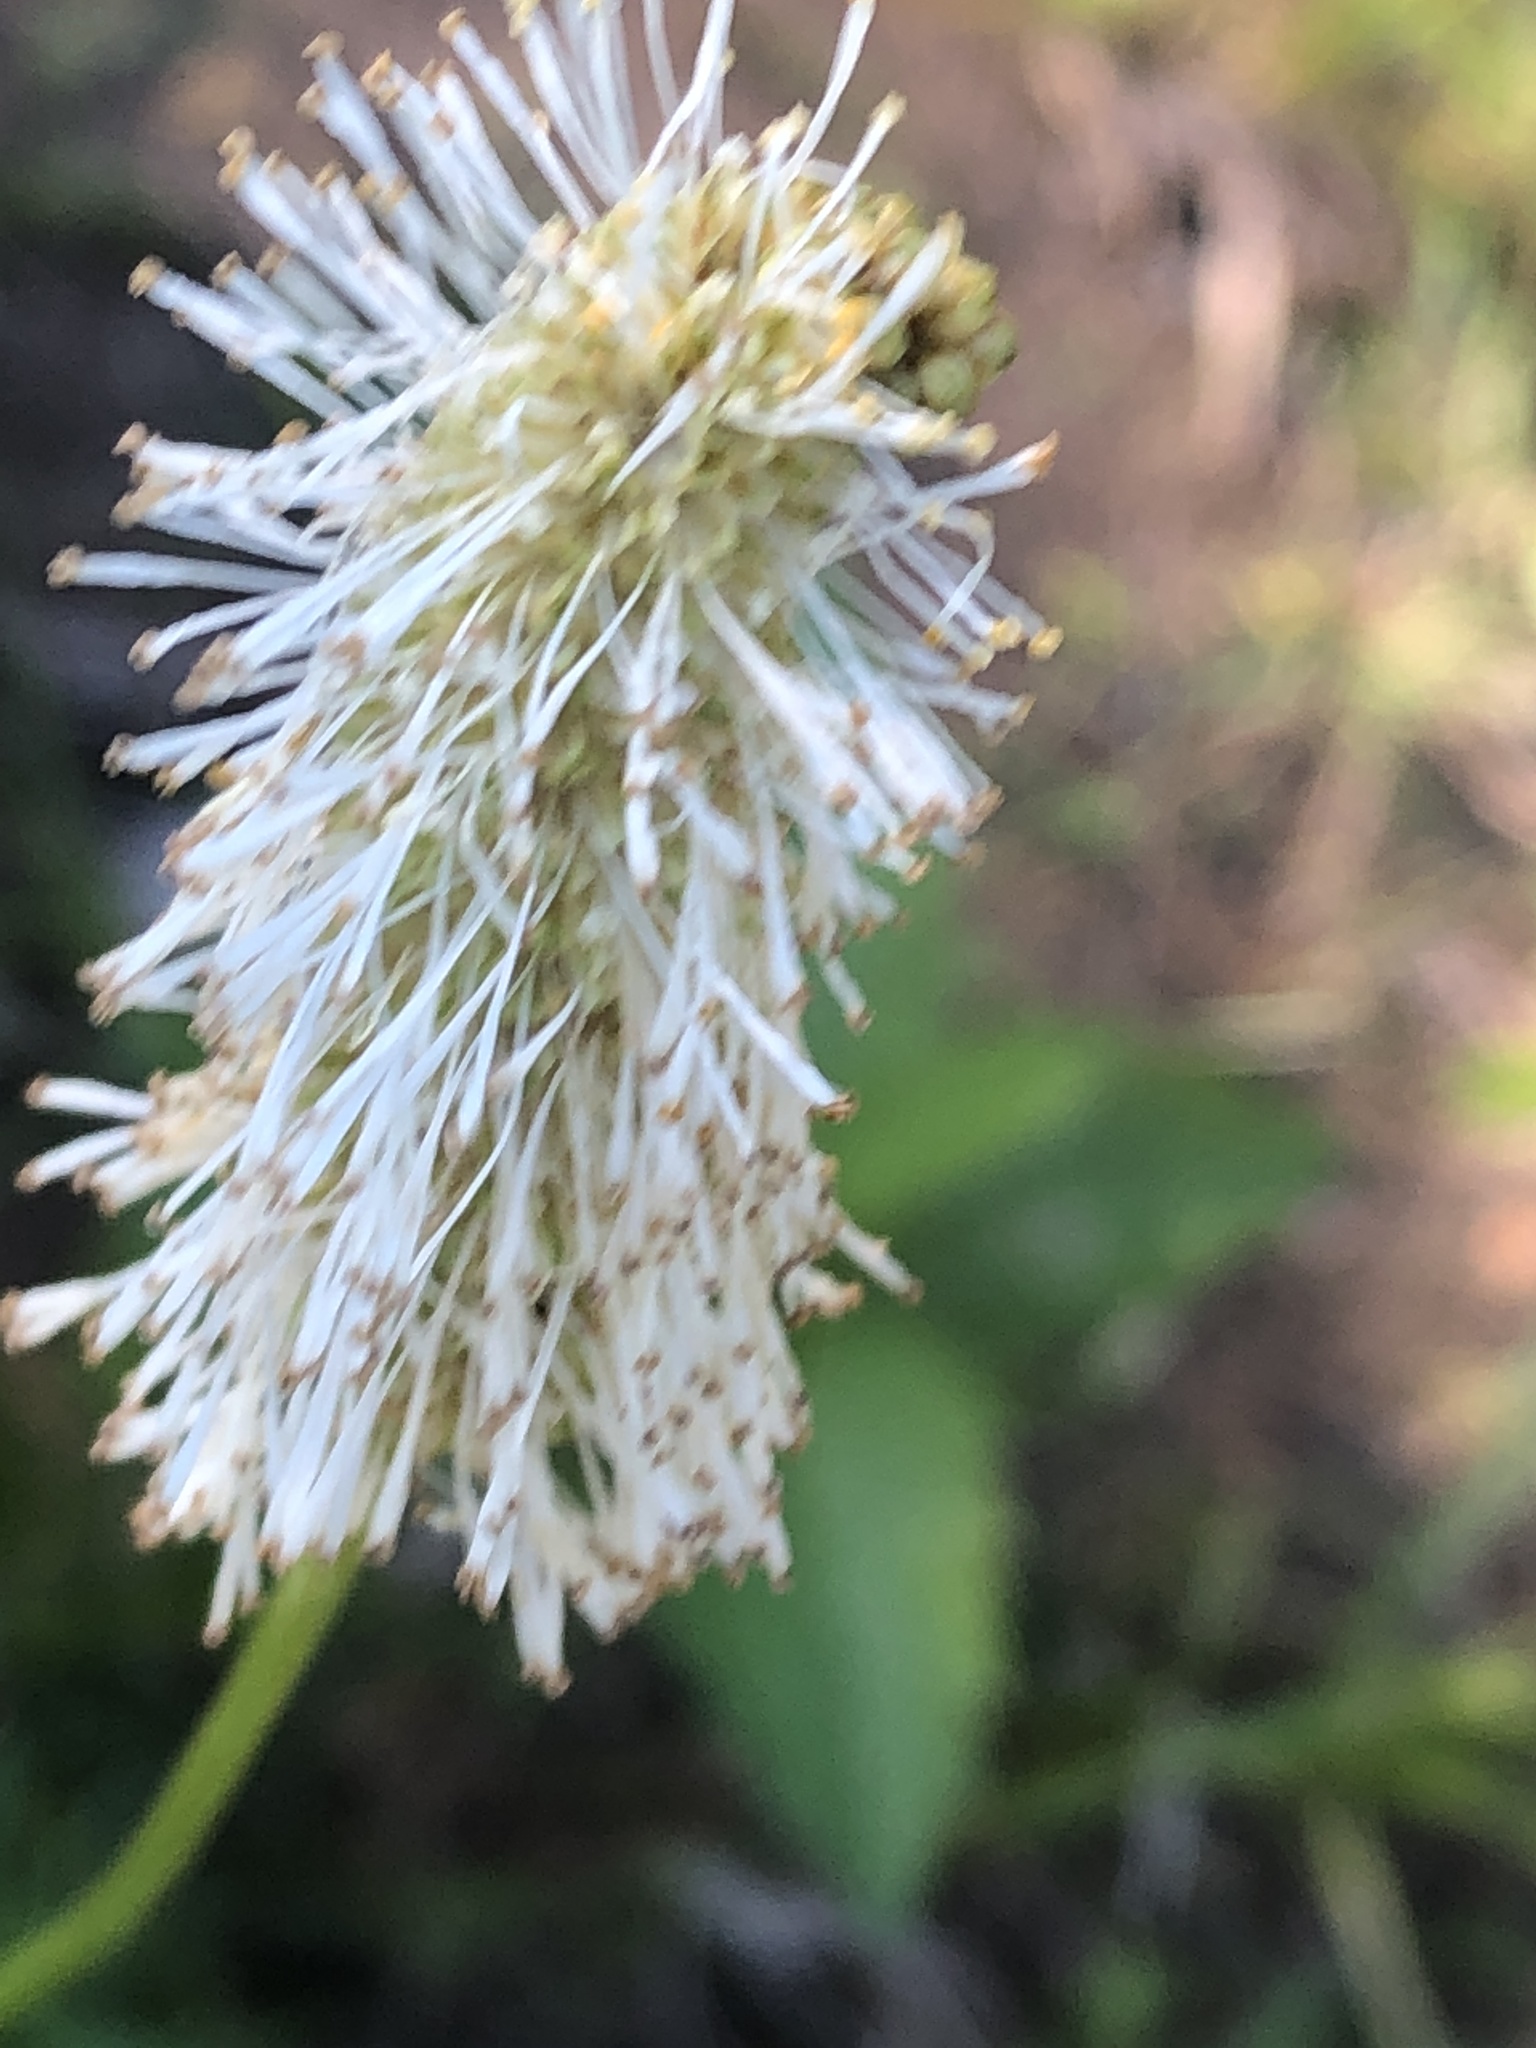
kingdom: Plantae
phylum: Tracheophyta
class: Magnoliopsida
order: Rosales
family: Rosaceae
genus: Sanguisorba
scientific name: Sanguisorba canadensis
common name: White burnet
